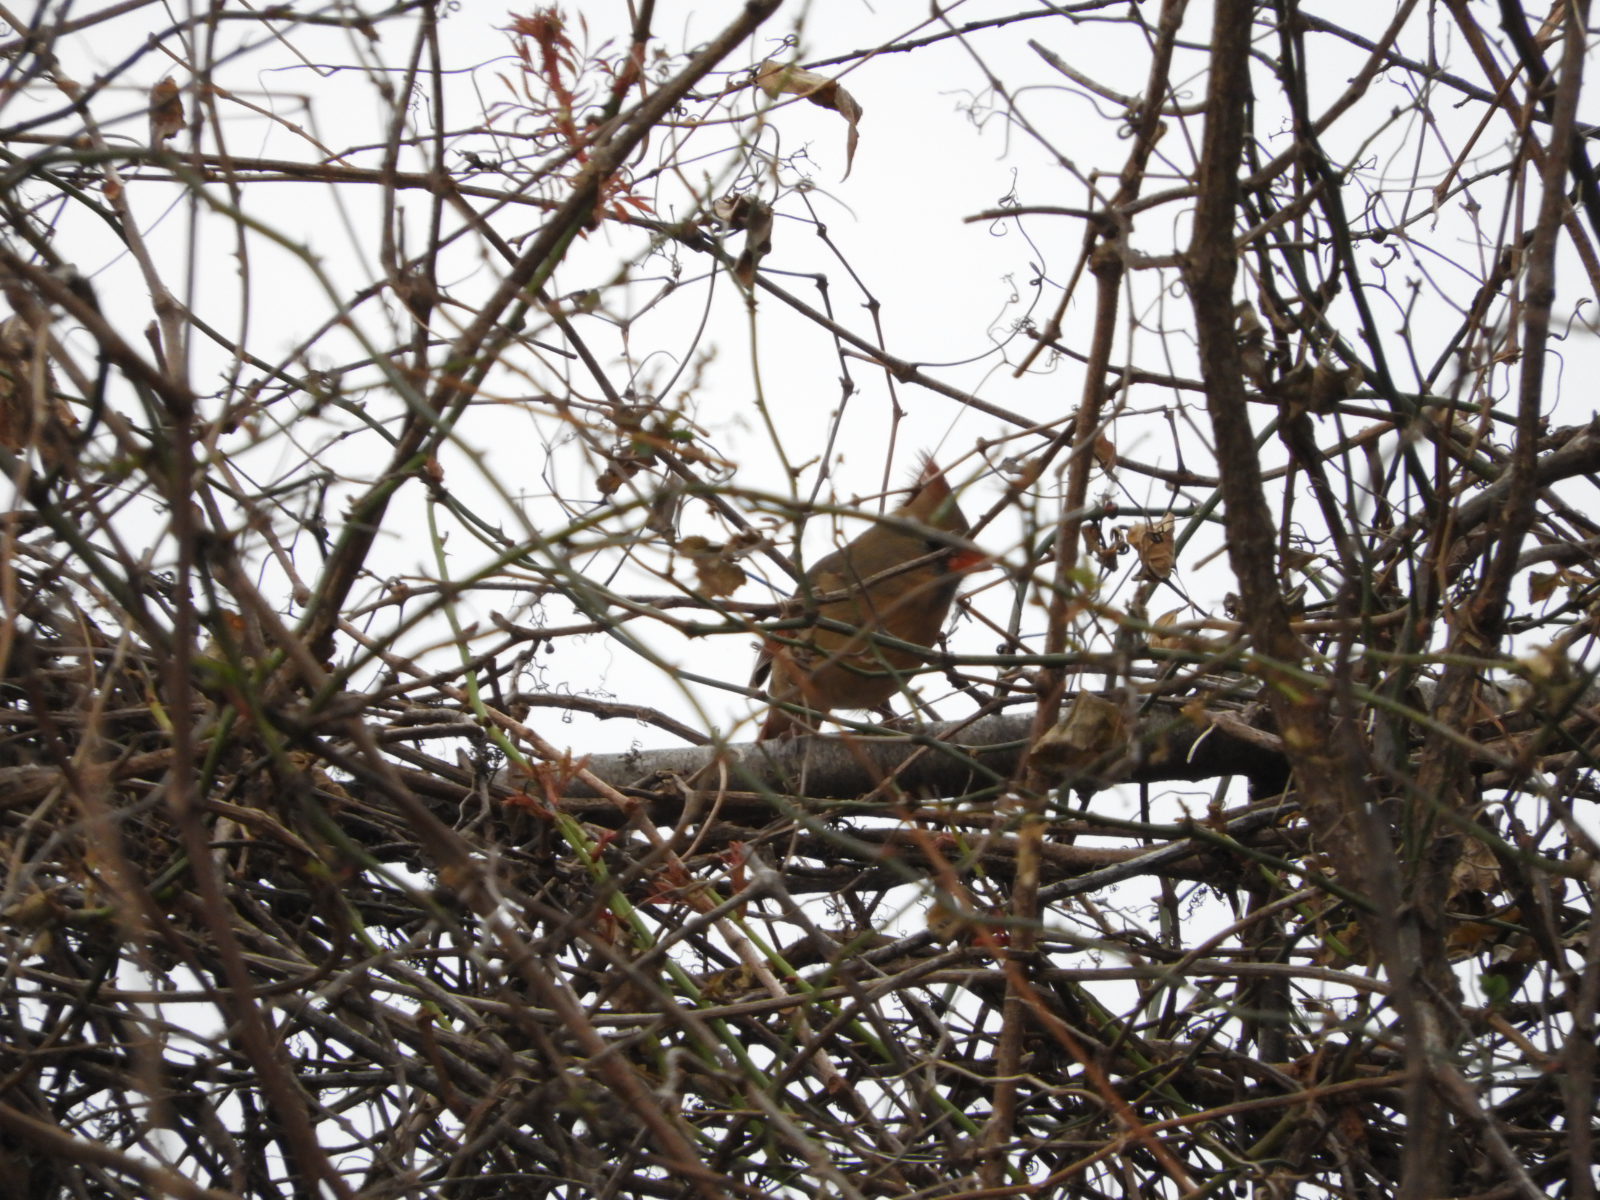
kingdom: Animalia
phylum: Chordata
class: Aves
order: Passeriformes
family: Cardinalidae
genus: Cardinalis
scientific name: Cardinalis cardinalis
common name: Northern cardinal
